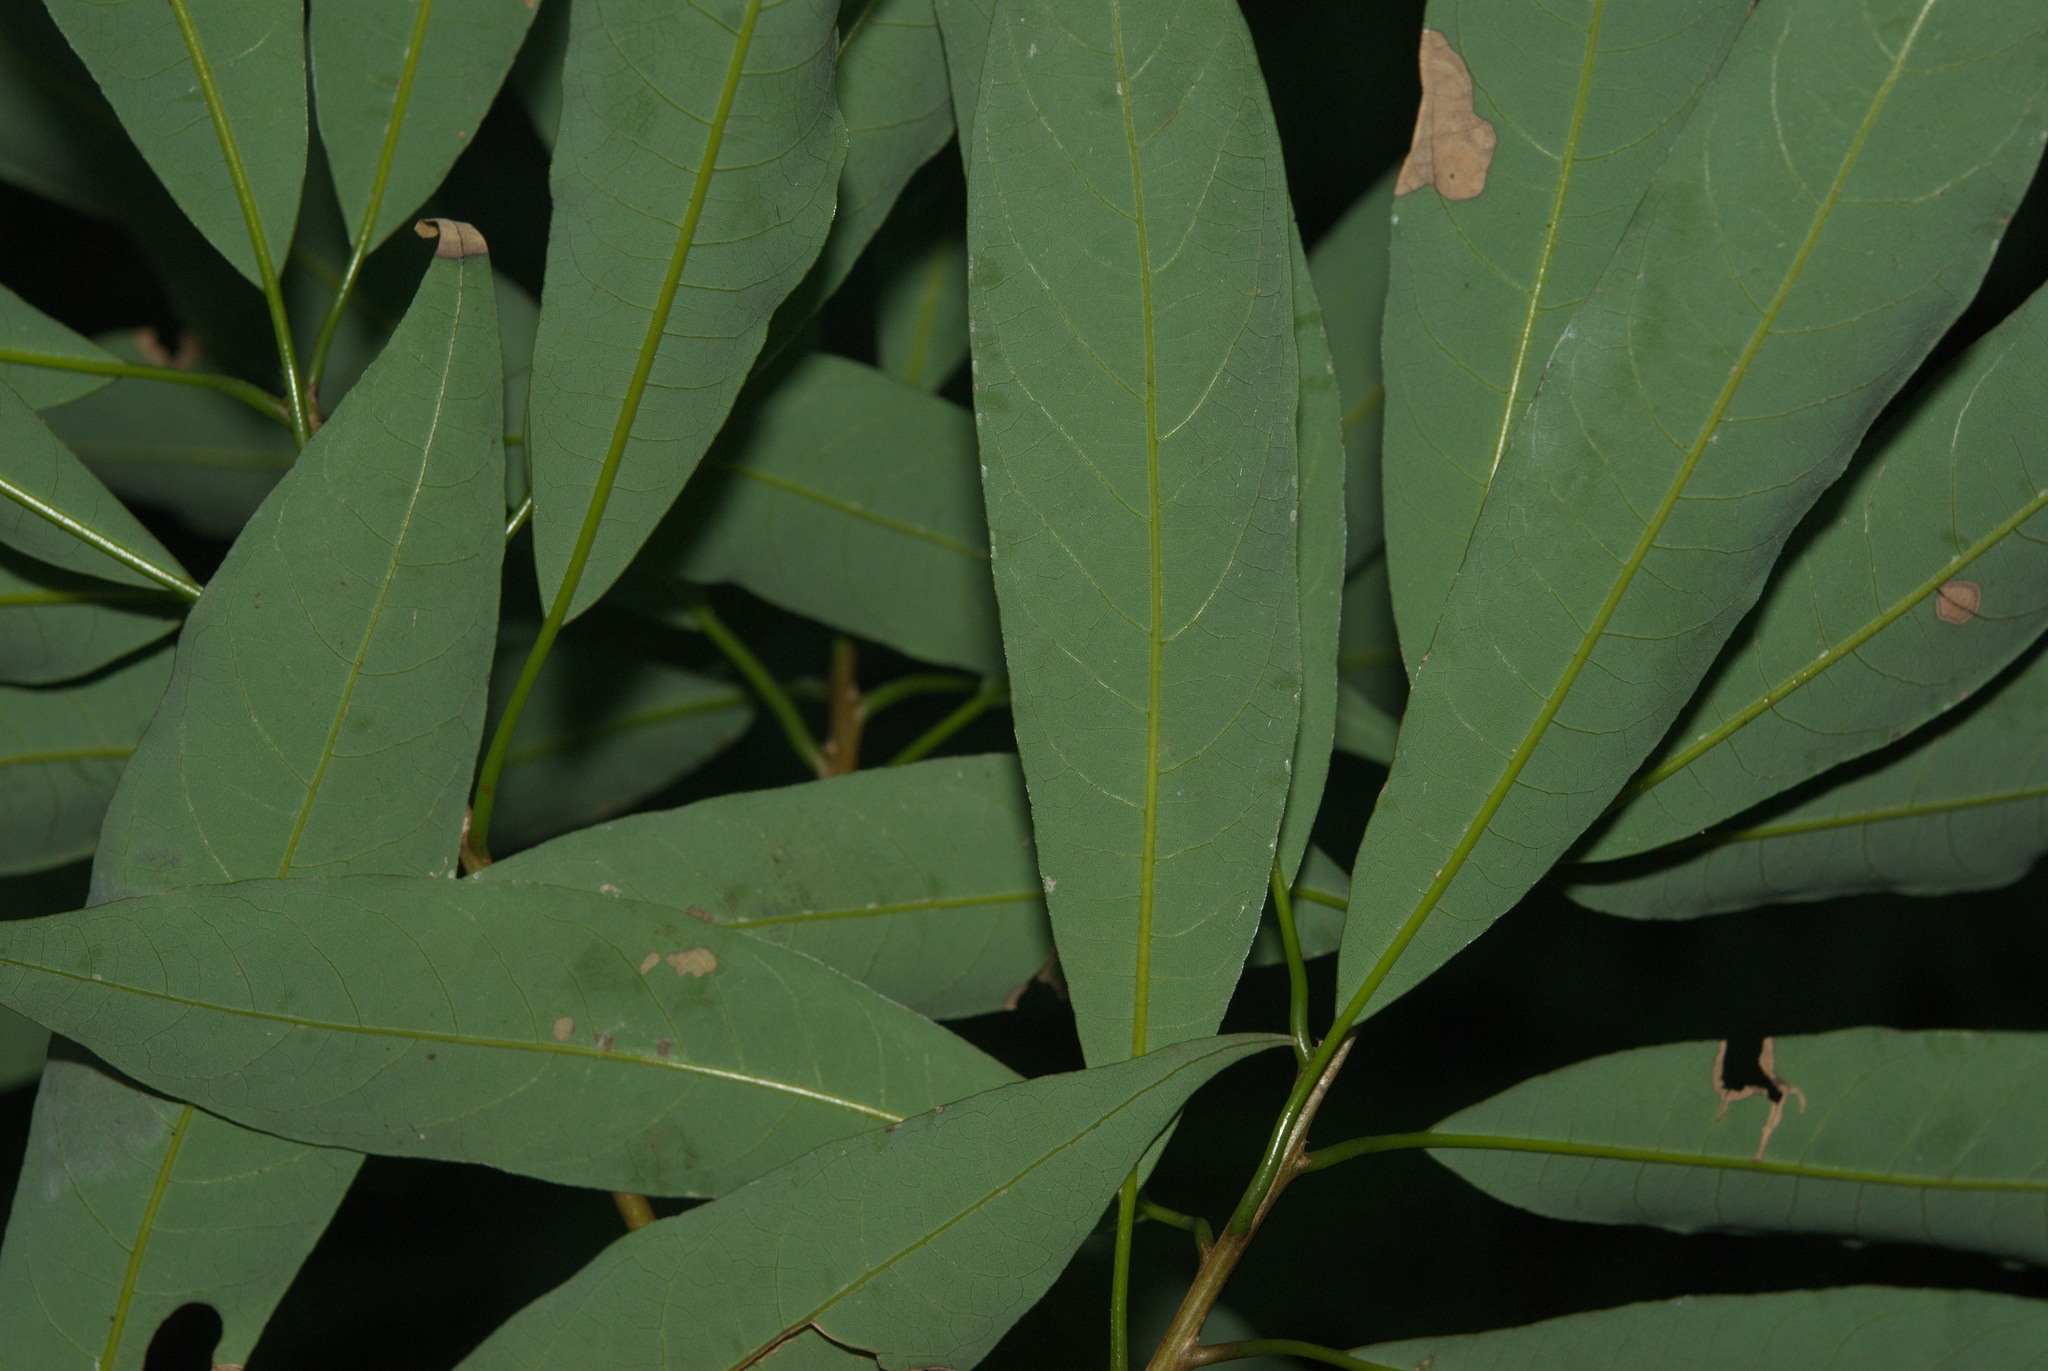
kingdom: Plantae
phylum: Tracheophyta
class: Magnoliopsida
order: Laurales
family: Lauraceae
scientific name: Lauraceae
